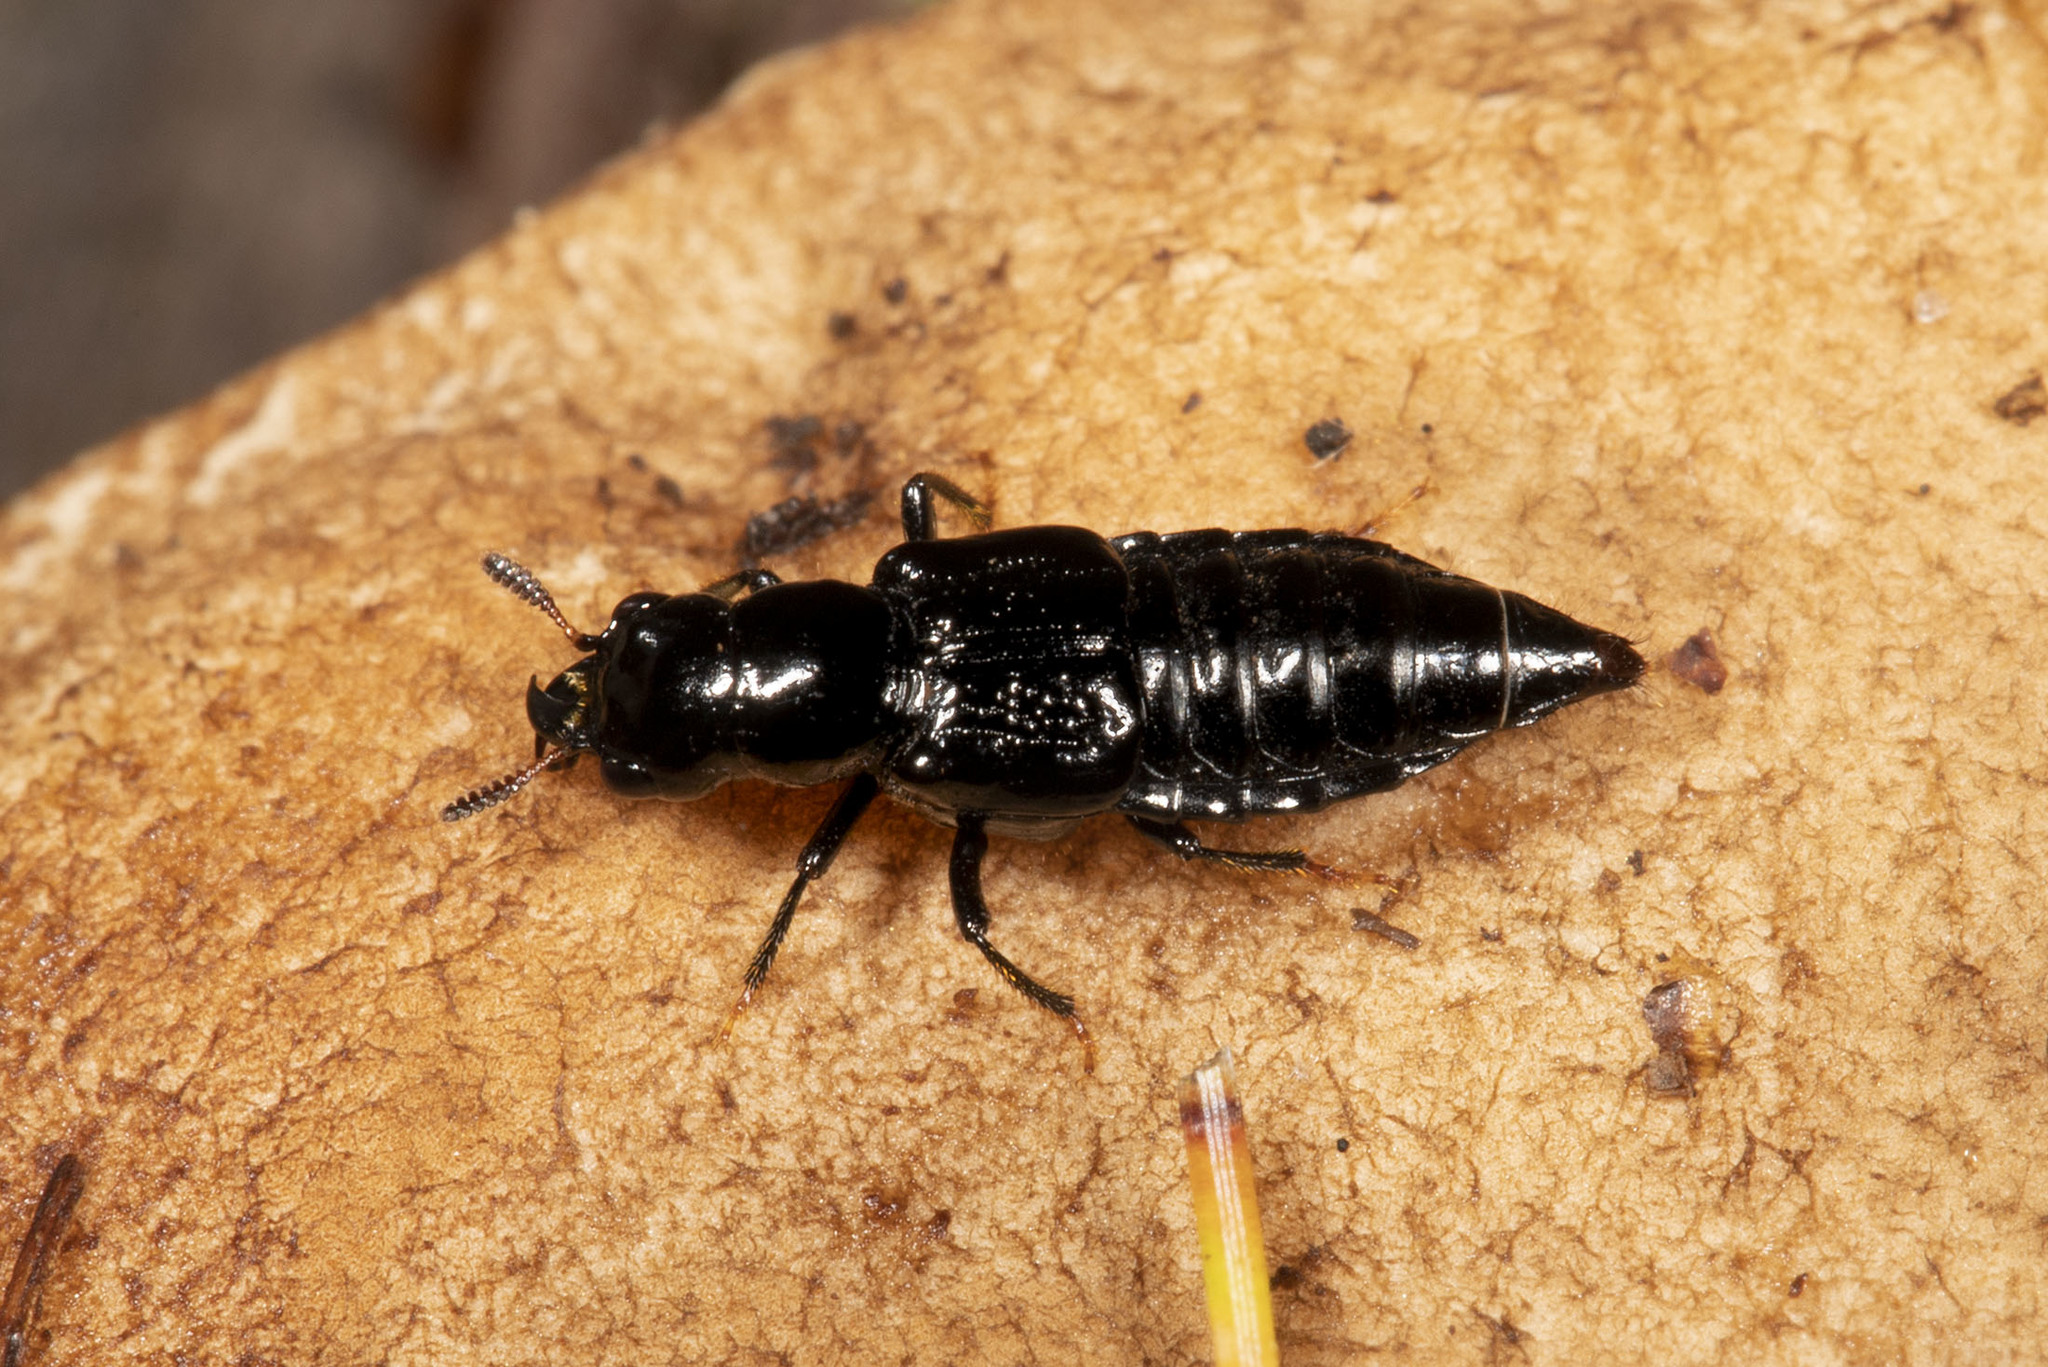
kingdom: Animalia
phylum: Arthropoda
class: Insecta
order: Coleoptera
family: Staphylinidae
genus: Oxyporus
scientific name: Oxyporus stygicus
